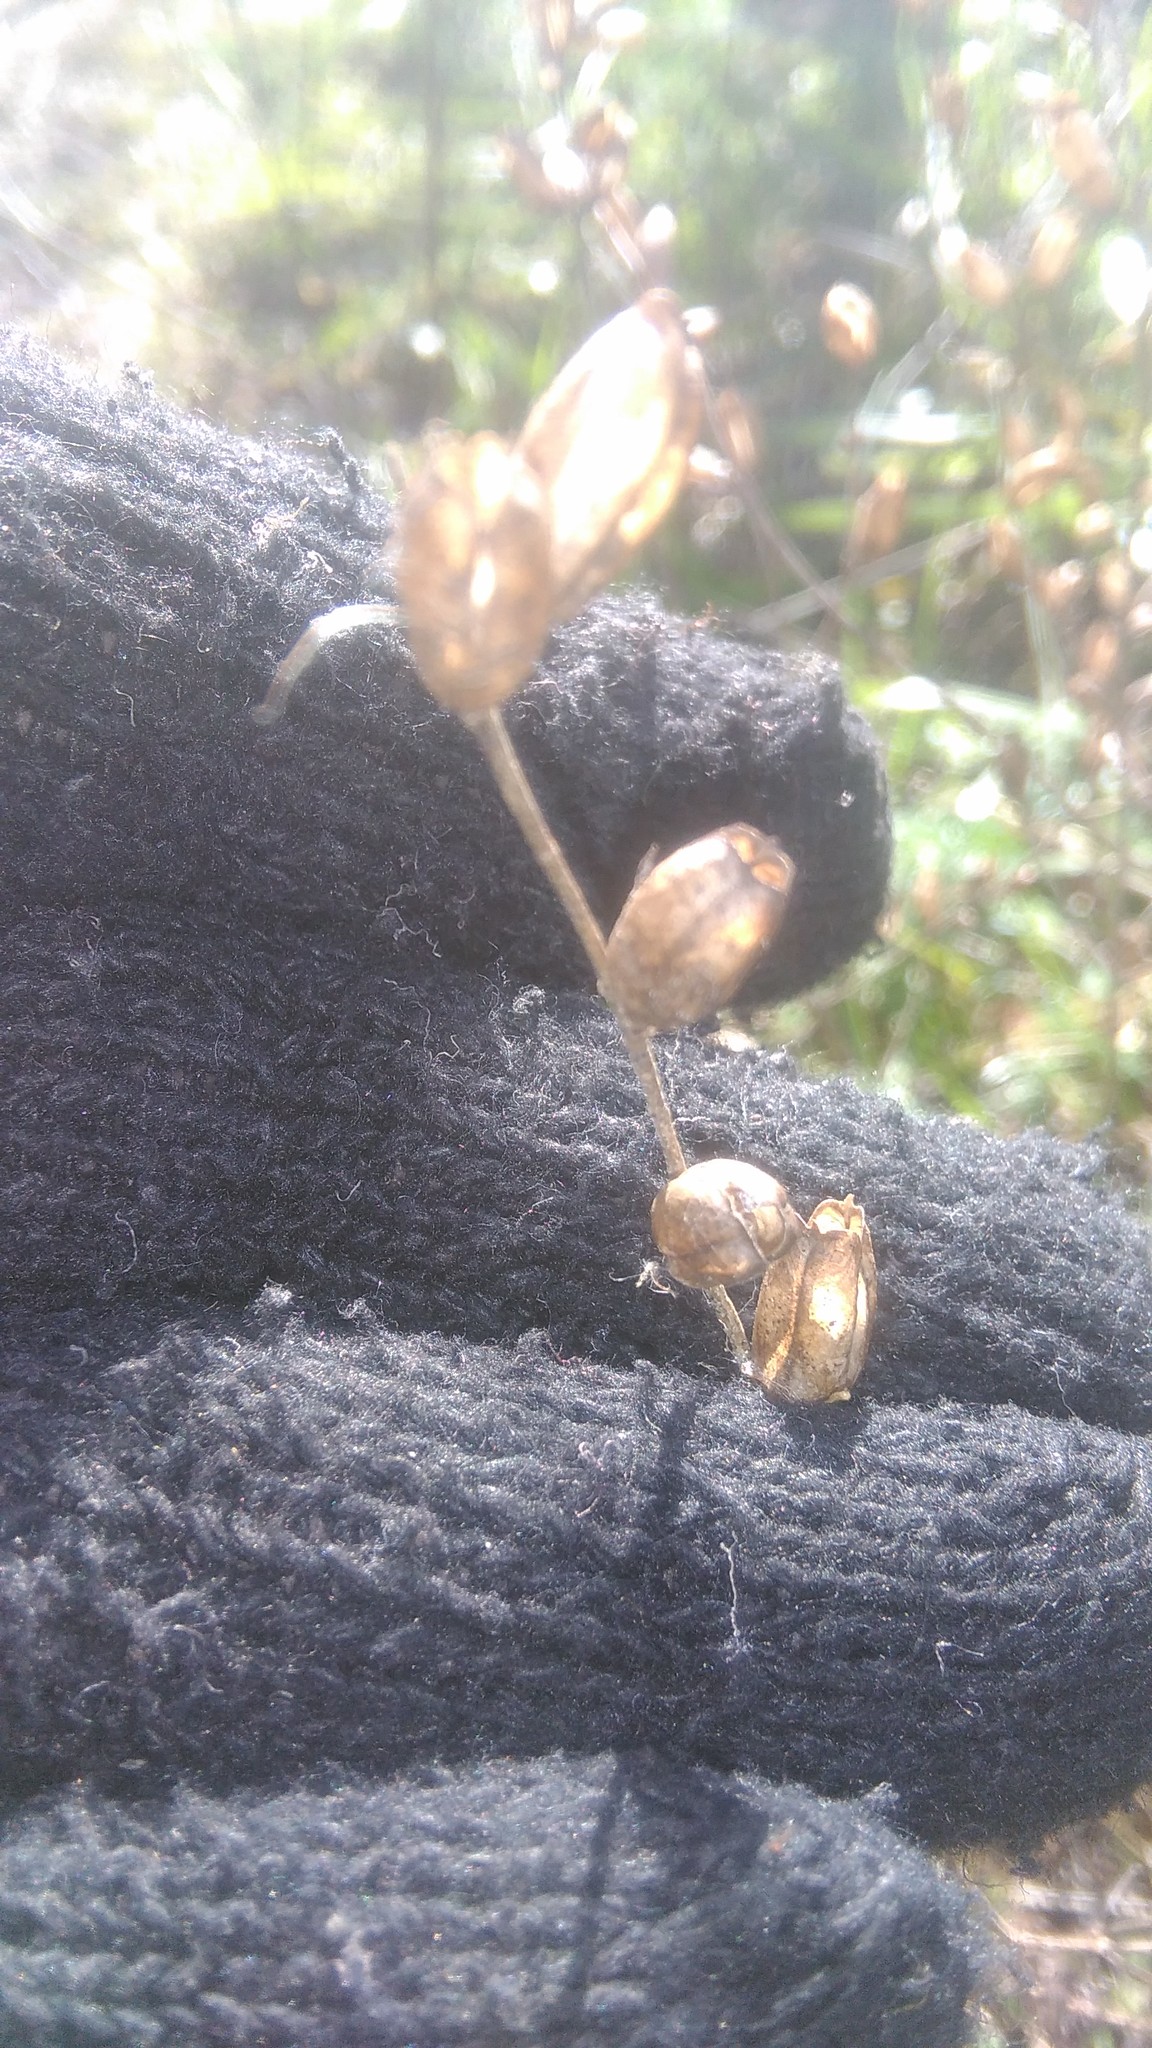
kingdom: Plantae
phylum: Tracheophyta
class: Magnoliopsida
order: Lamiales
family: Orobanchaceae
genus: Agalinis
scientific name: Agalinis communis
